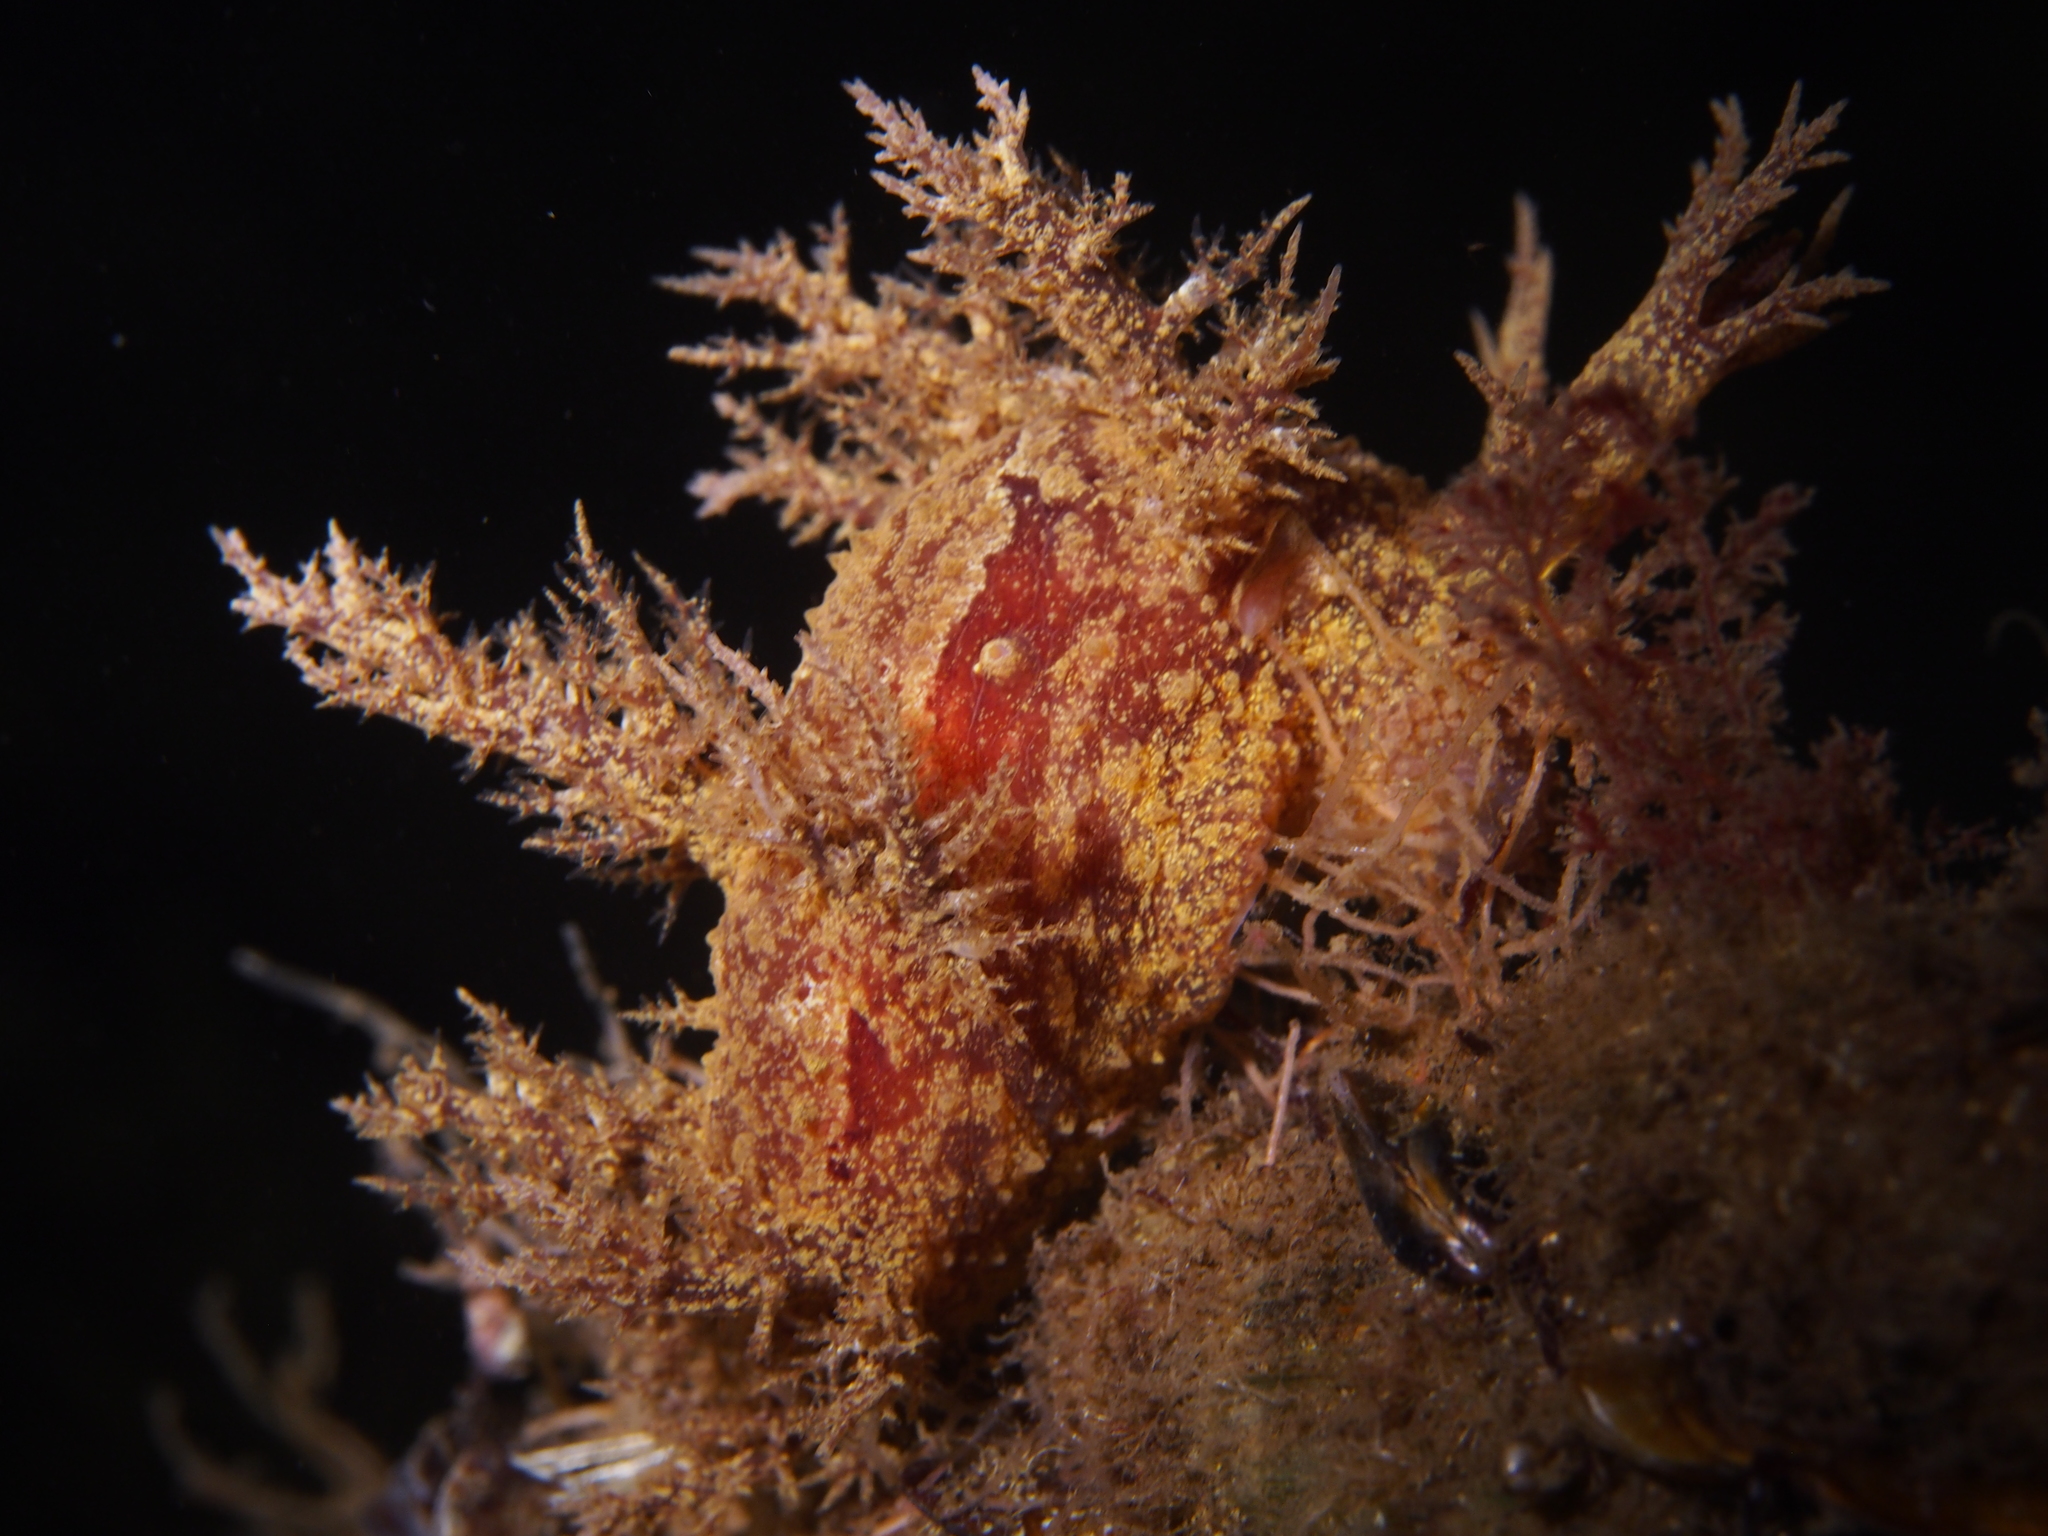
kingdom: Animalia
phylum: Mollusca
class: Gastropoda
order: Nudibranchia
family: Dendronotidae
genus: Dendronotus
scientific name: Dendronotus europaeus
